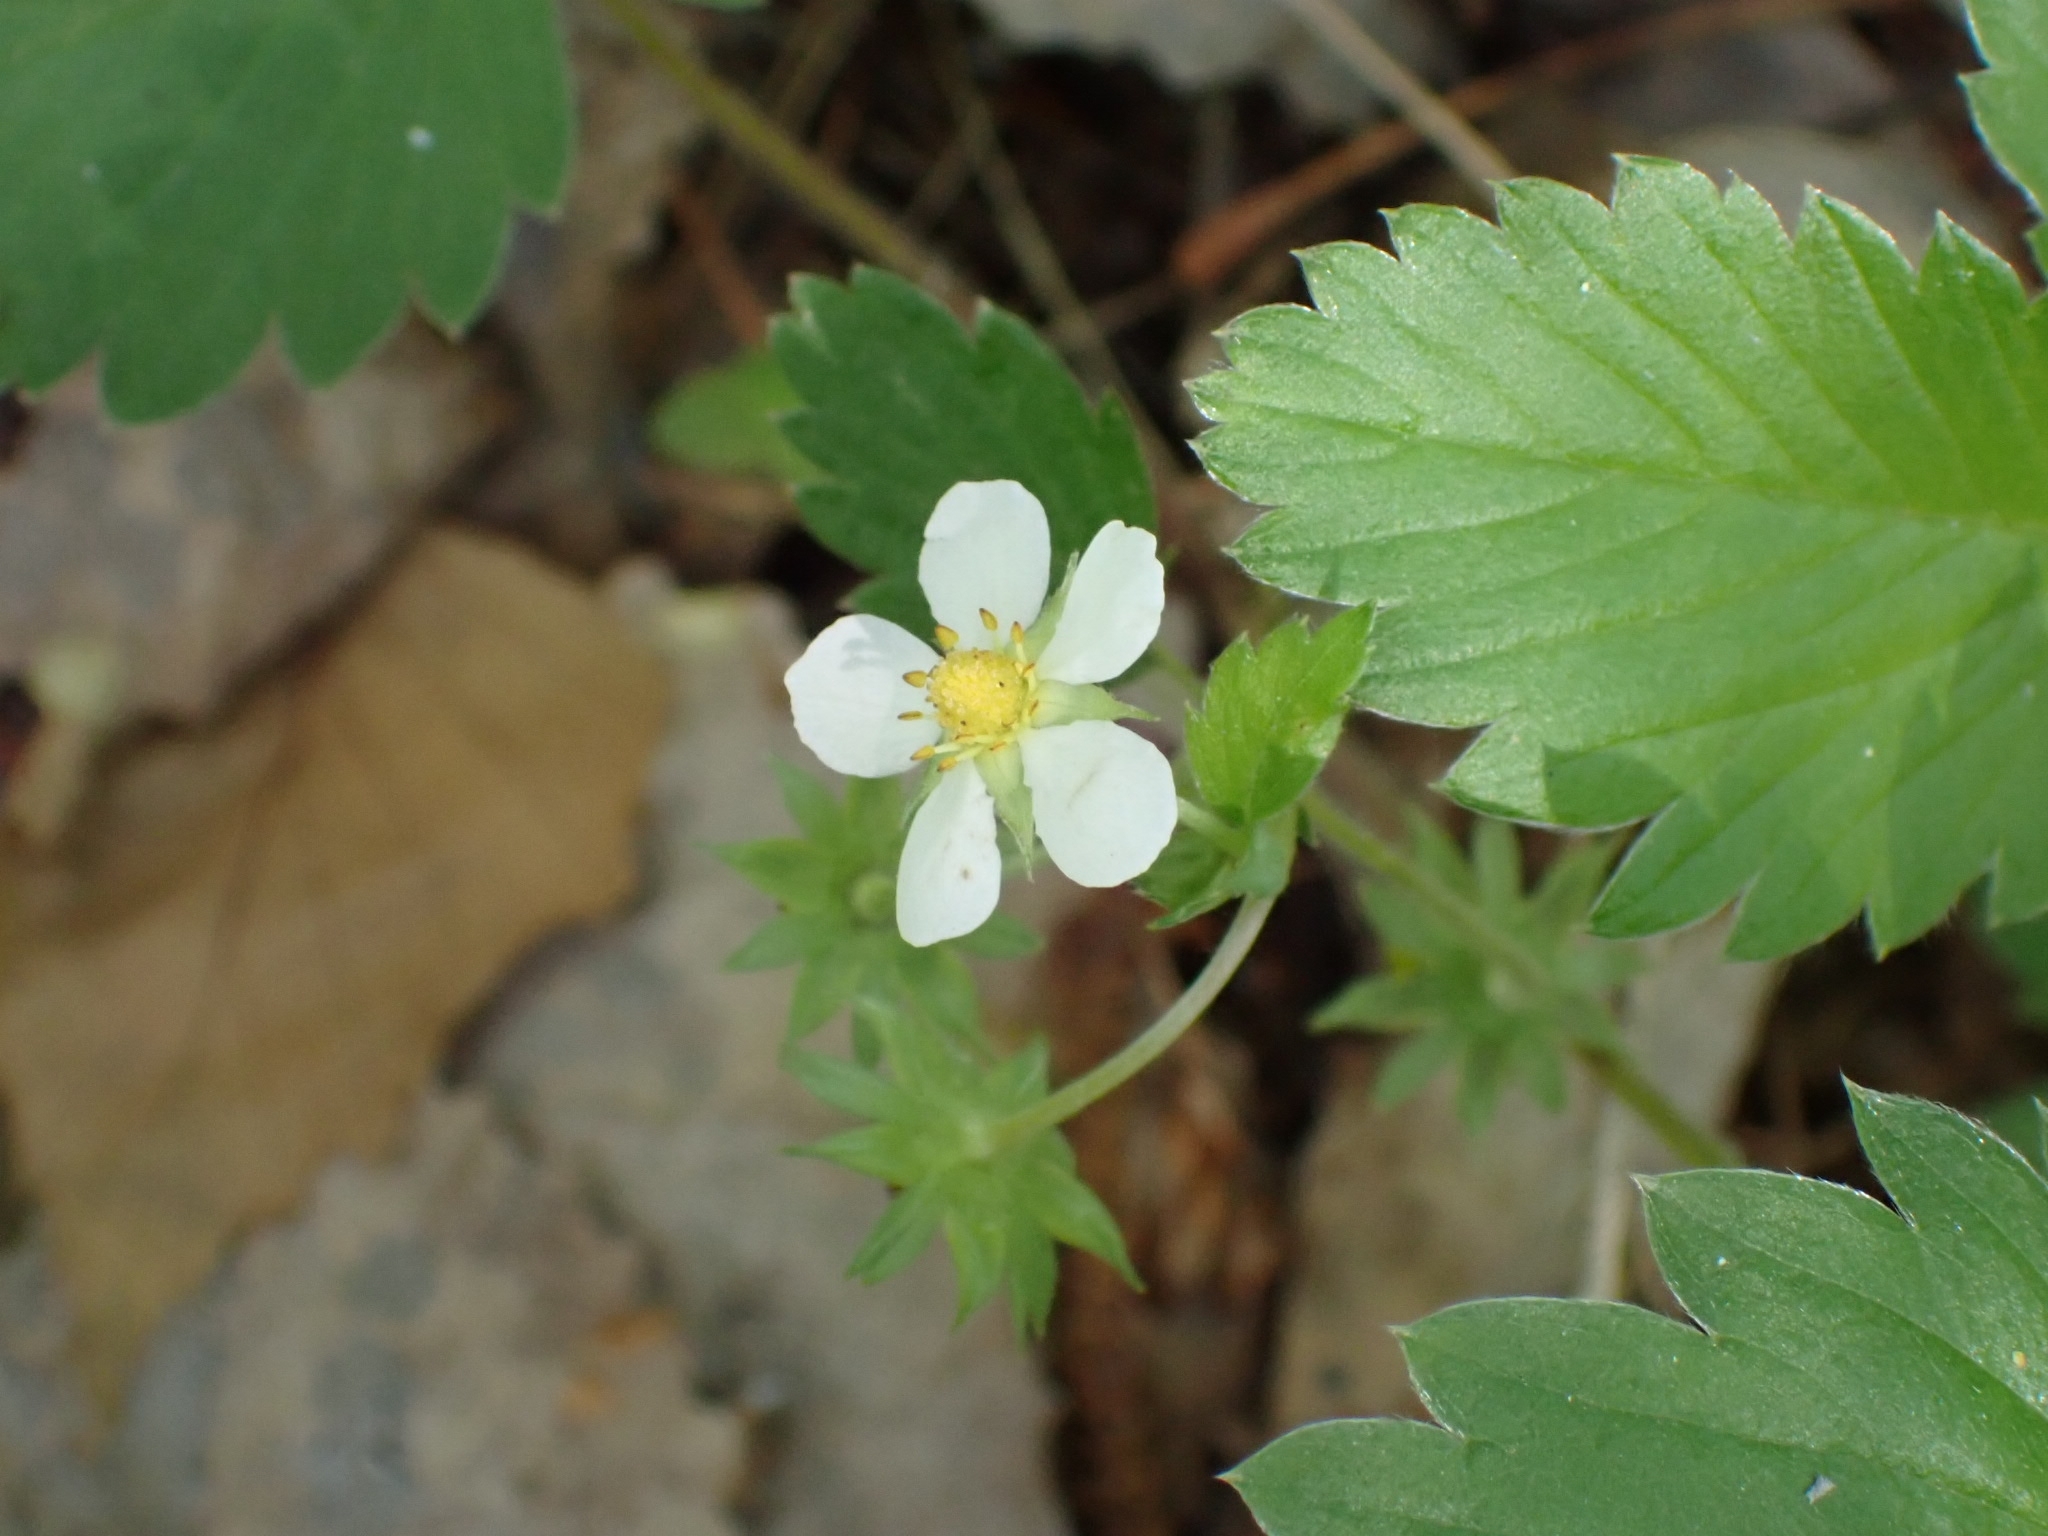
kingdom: Plantae
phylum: Tracheophyta
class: Magnoliopsida
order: Rosales
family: Rosaceae
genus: Fragaria
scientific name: Fragaria vesca
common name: Wild strawberry
